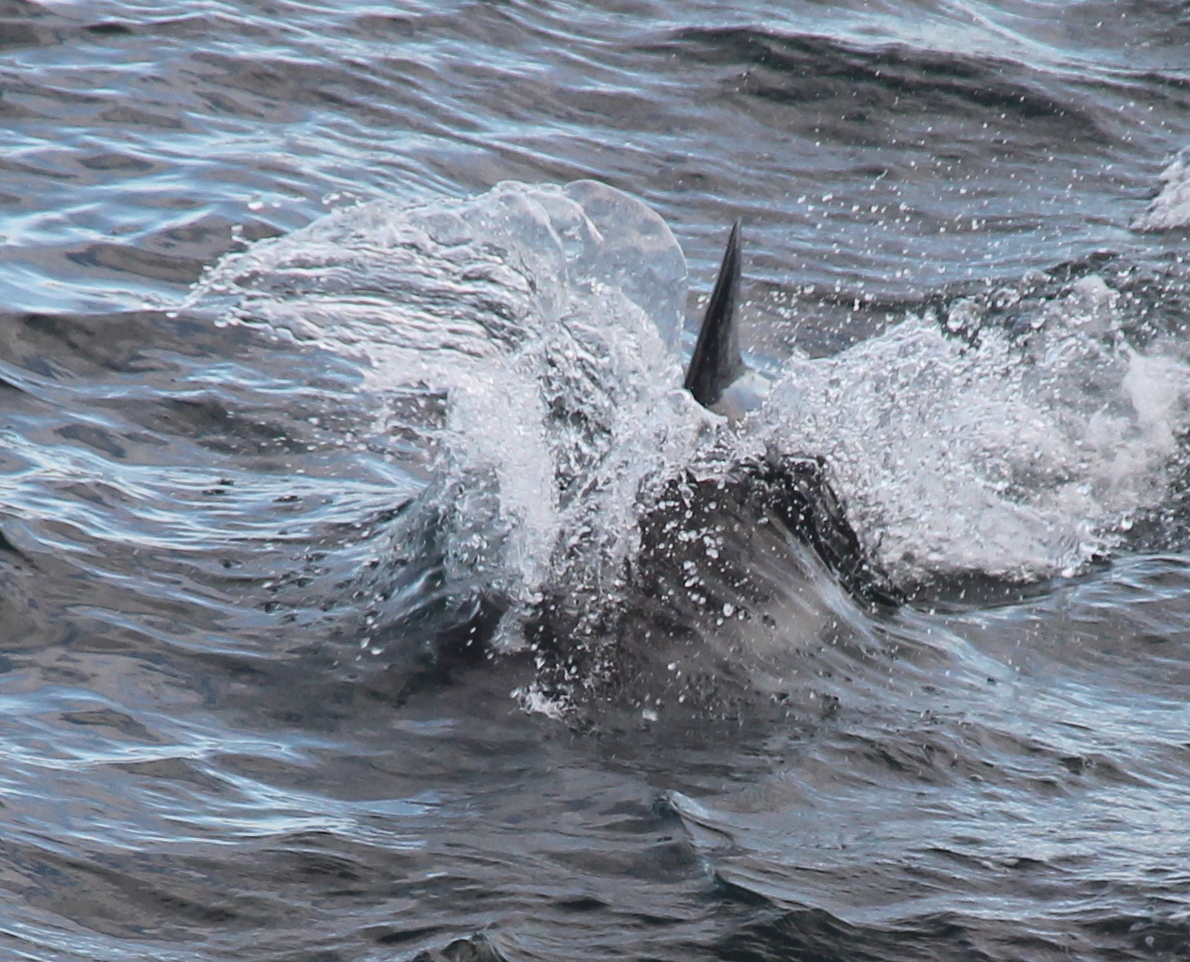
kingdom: Animalia
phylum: Chordata
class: Mammalia
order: Cetacea
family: Delphinidae
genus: Lagenorhynchus
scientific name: Lagenorhynchus australis
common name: Peale's dolphin
